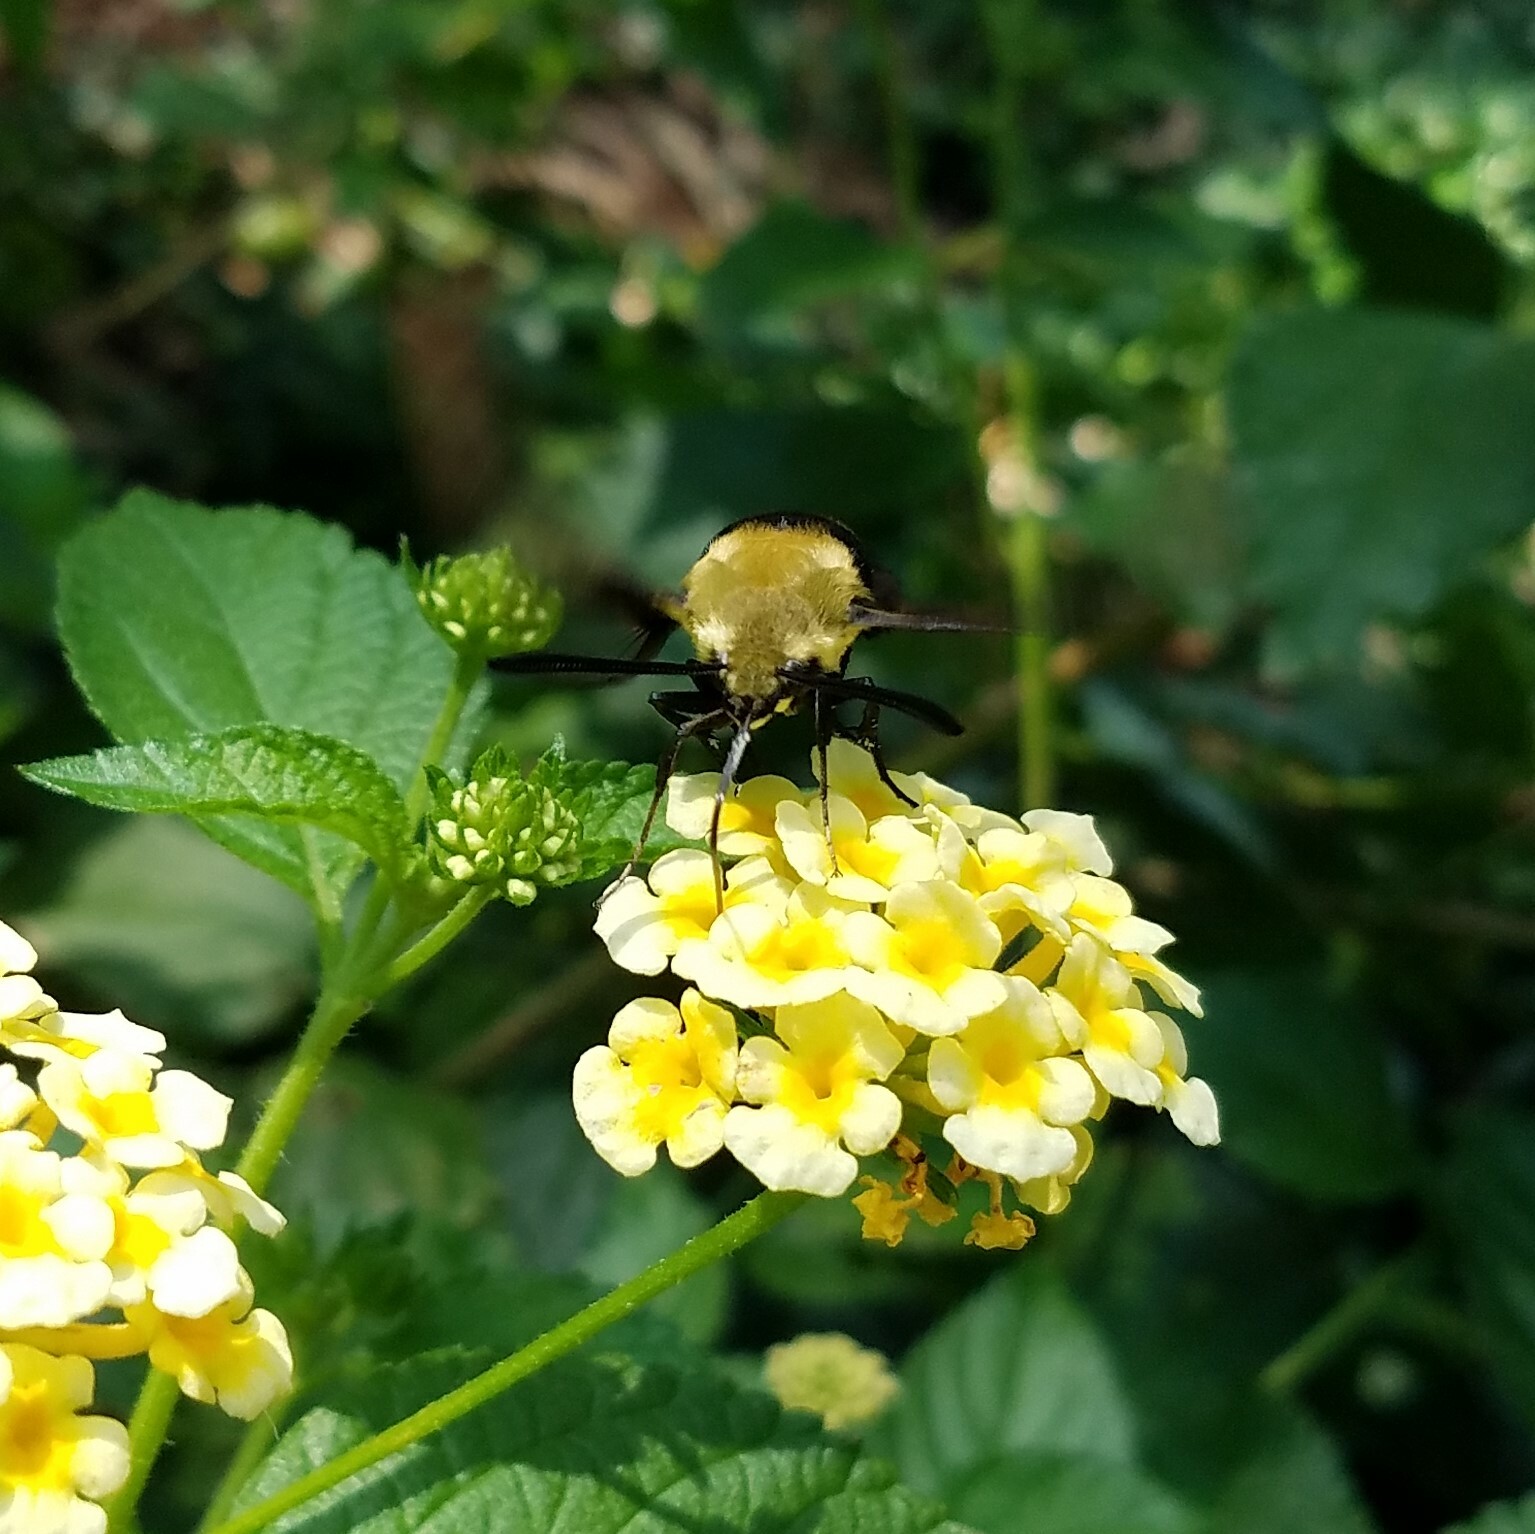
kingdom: Animalia
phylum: Arthropoda
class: Insecta
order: Lepidoptera
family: Sphingidae
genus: Hemaris
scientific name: Hemaris diffinis
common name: Bumblebee moth
